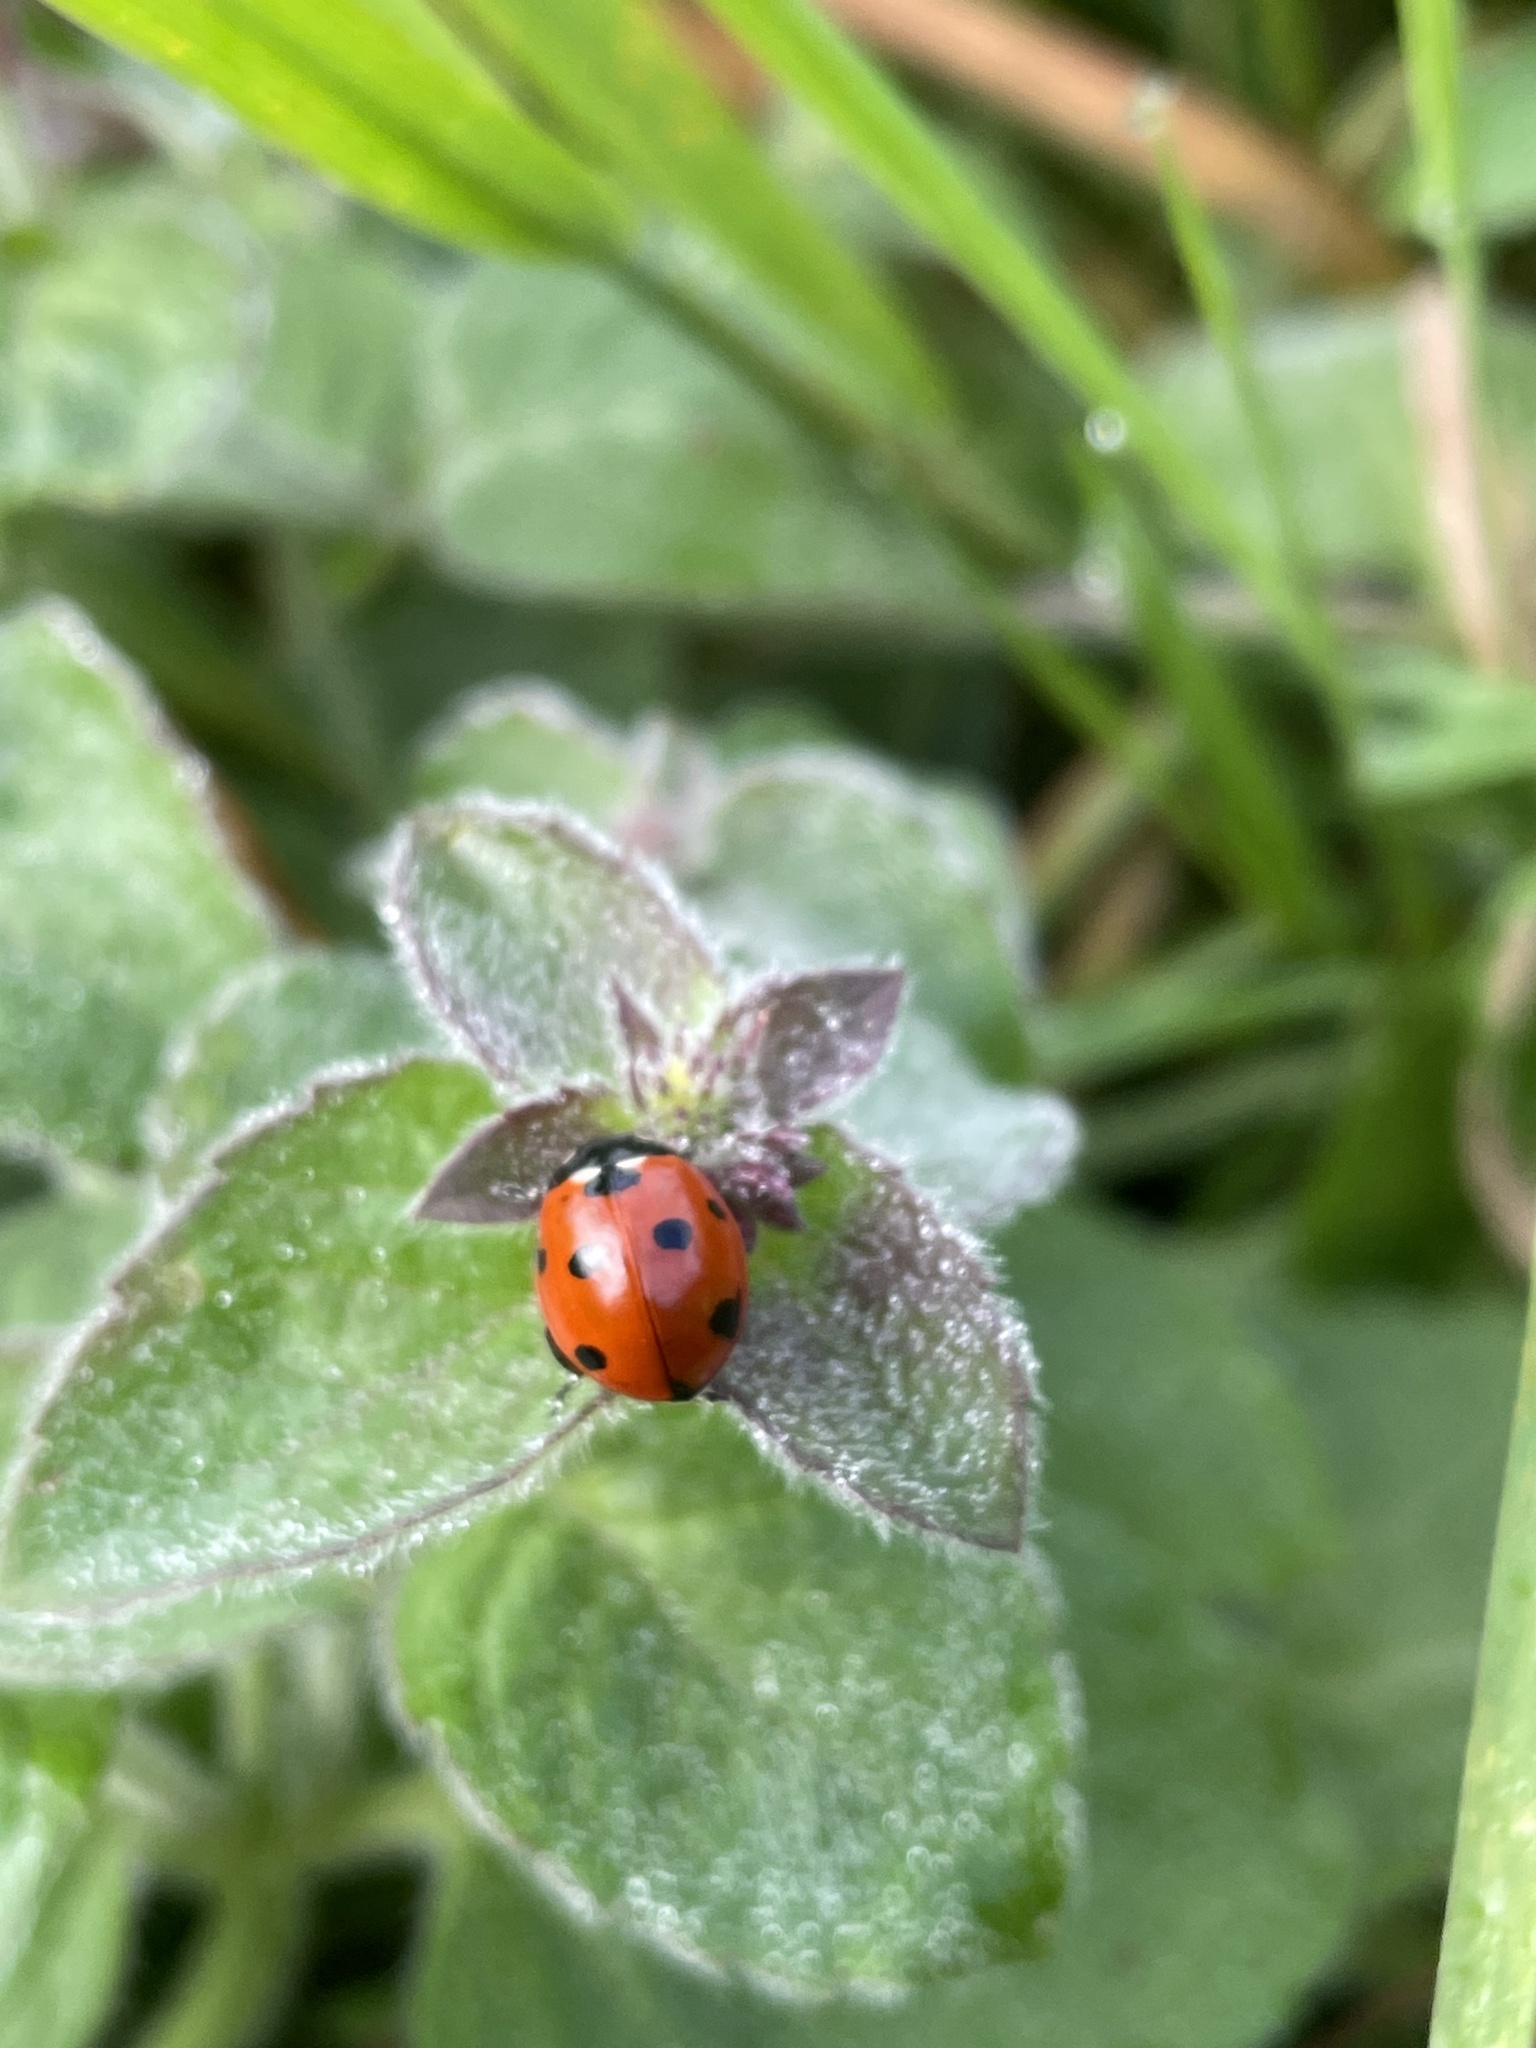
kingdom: Animalia
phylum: Arthropoda
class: Insecta
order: Coleoptera
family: Coccinellidae
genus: Coccinella
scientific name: Coccinella septempunctata
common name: Sevenspotted lady beetle
